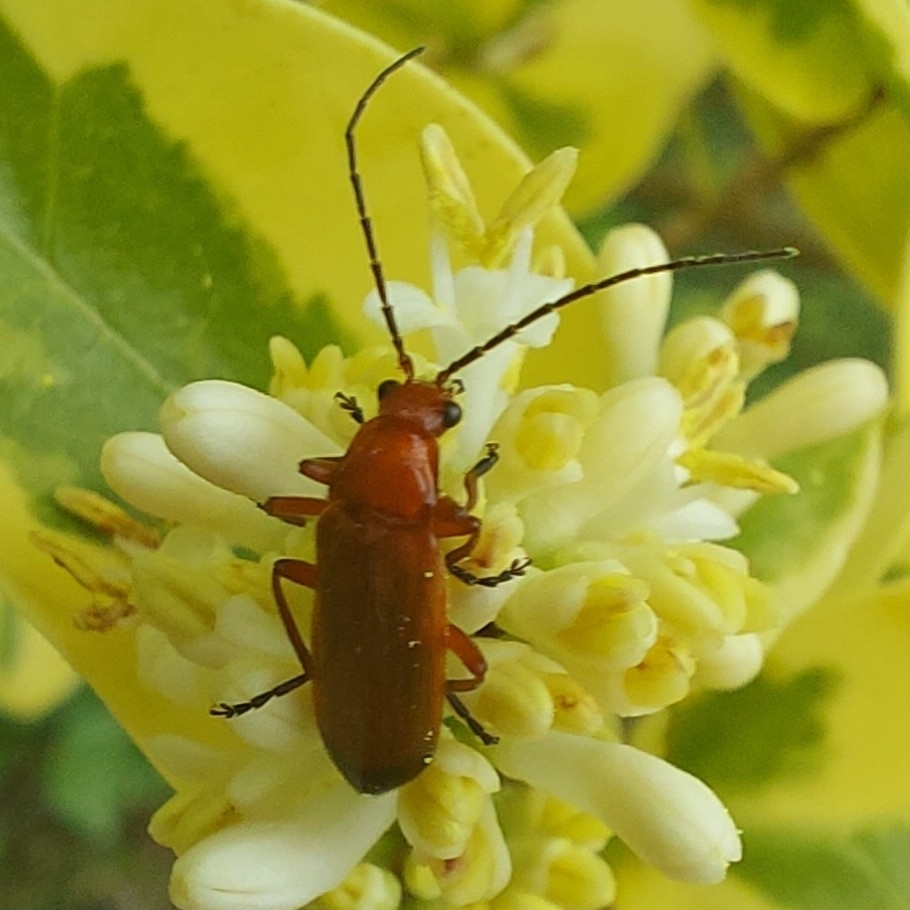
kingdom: Animalia
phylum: Arthropoda
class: Insecta
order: Coleoptera
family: Cantharidae
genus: Rhagonycha
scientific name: Rhagonycha fulva
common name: Common red soldier beetle
